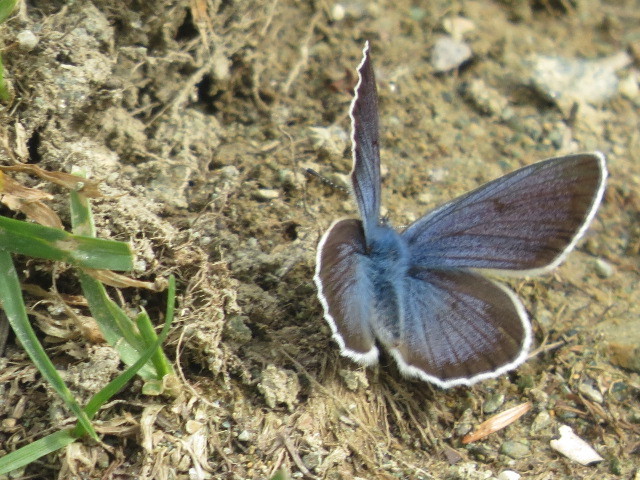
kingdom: Animalia
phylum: Arthropoda
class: Insecta
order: Lepidoptera
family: Lycaenidae
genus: Cyaniris
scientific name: Cyaniris semiargus
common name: Mazarine blue
